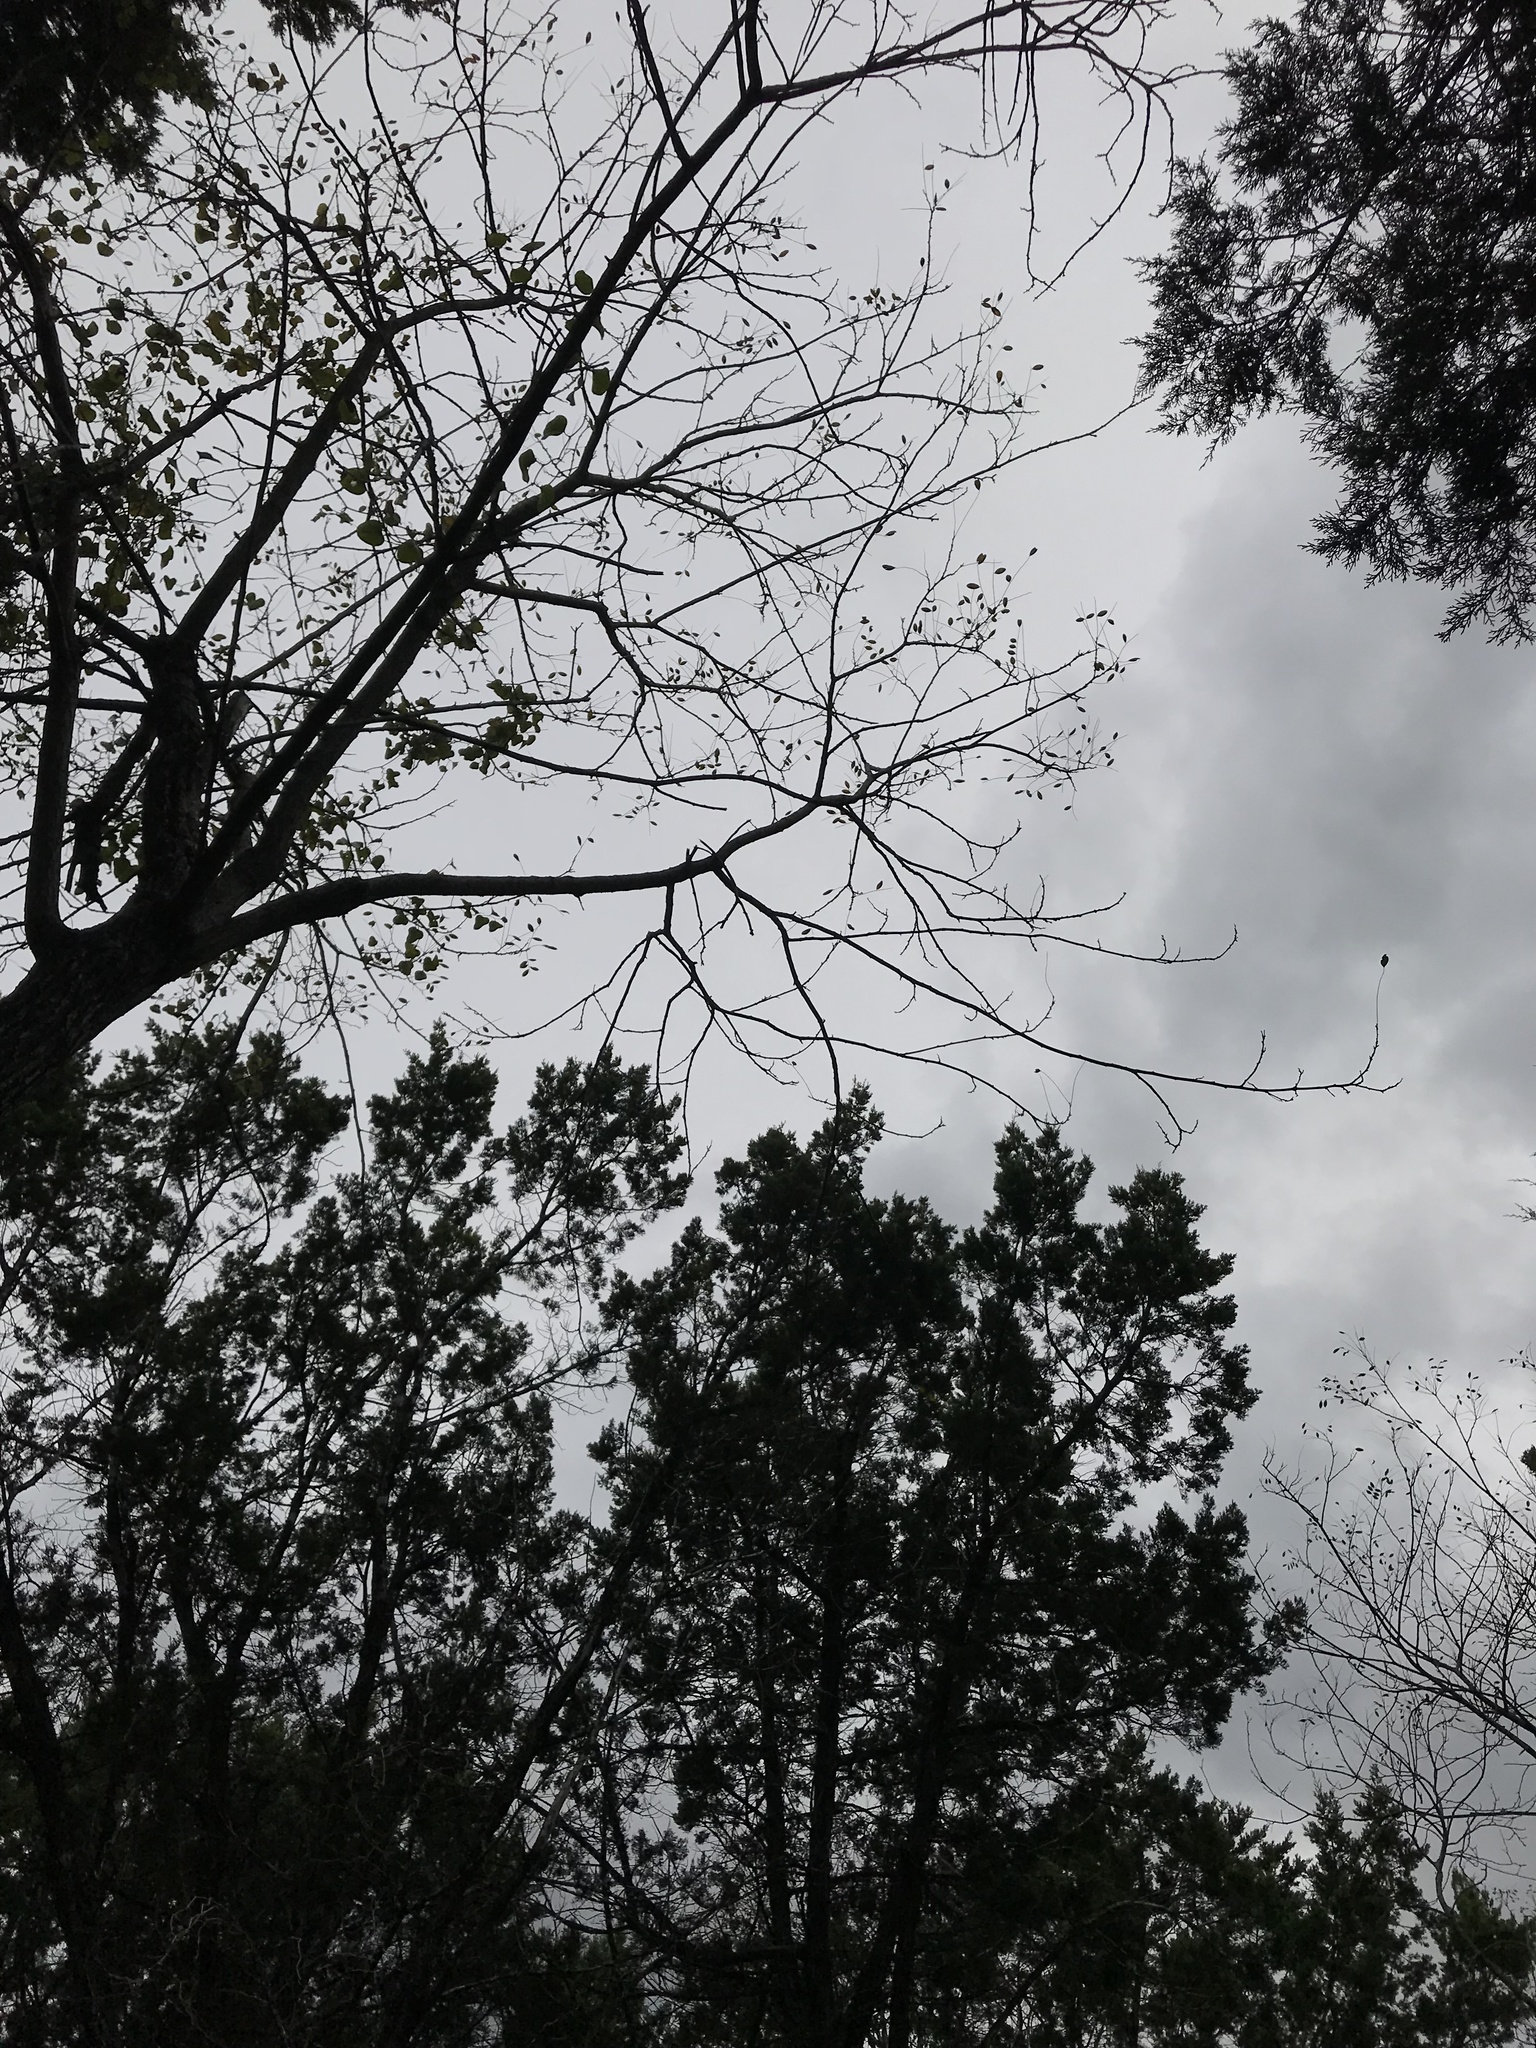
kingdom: Plantae
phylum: Tracheophyta
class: Magnoliopsida
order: Fabales
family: Fabaceae
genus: Styphnolobium
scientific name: Styphnolobium affine
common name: Texas sophora
